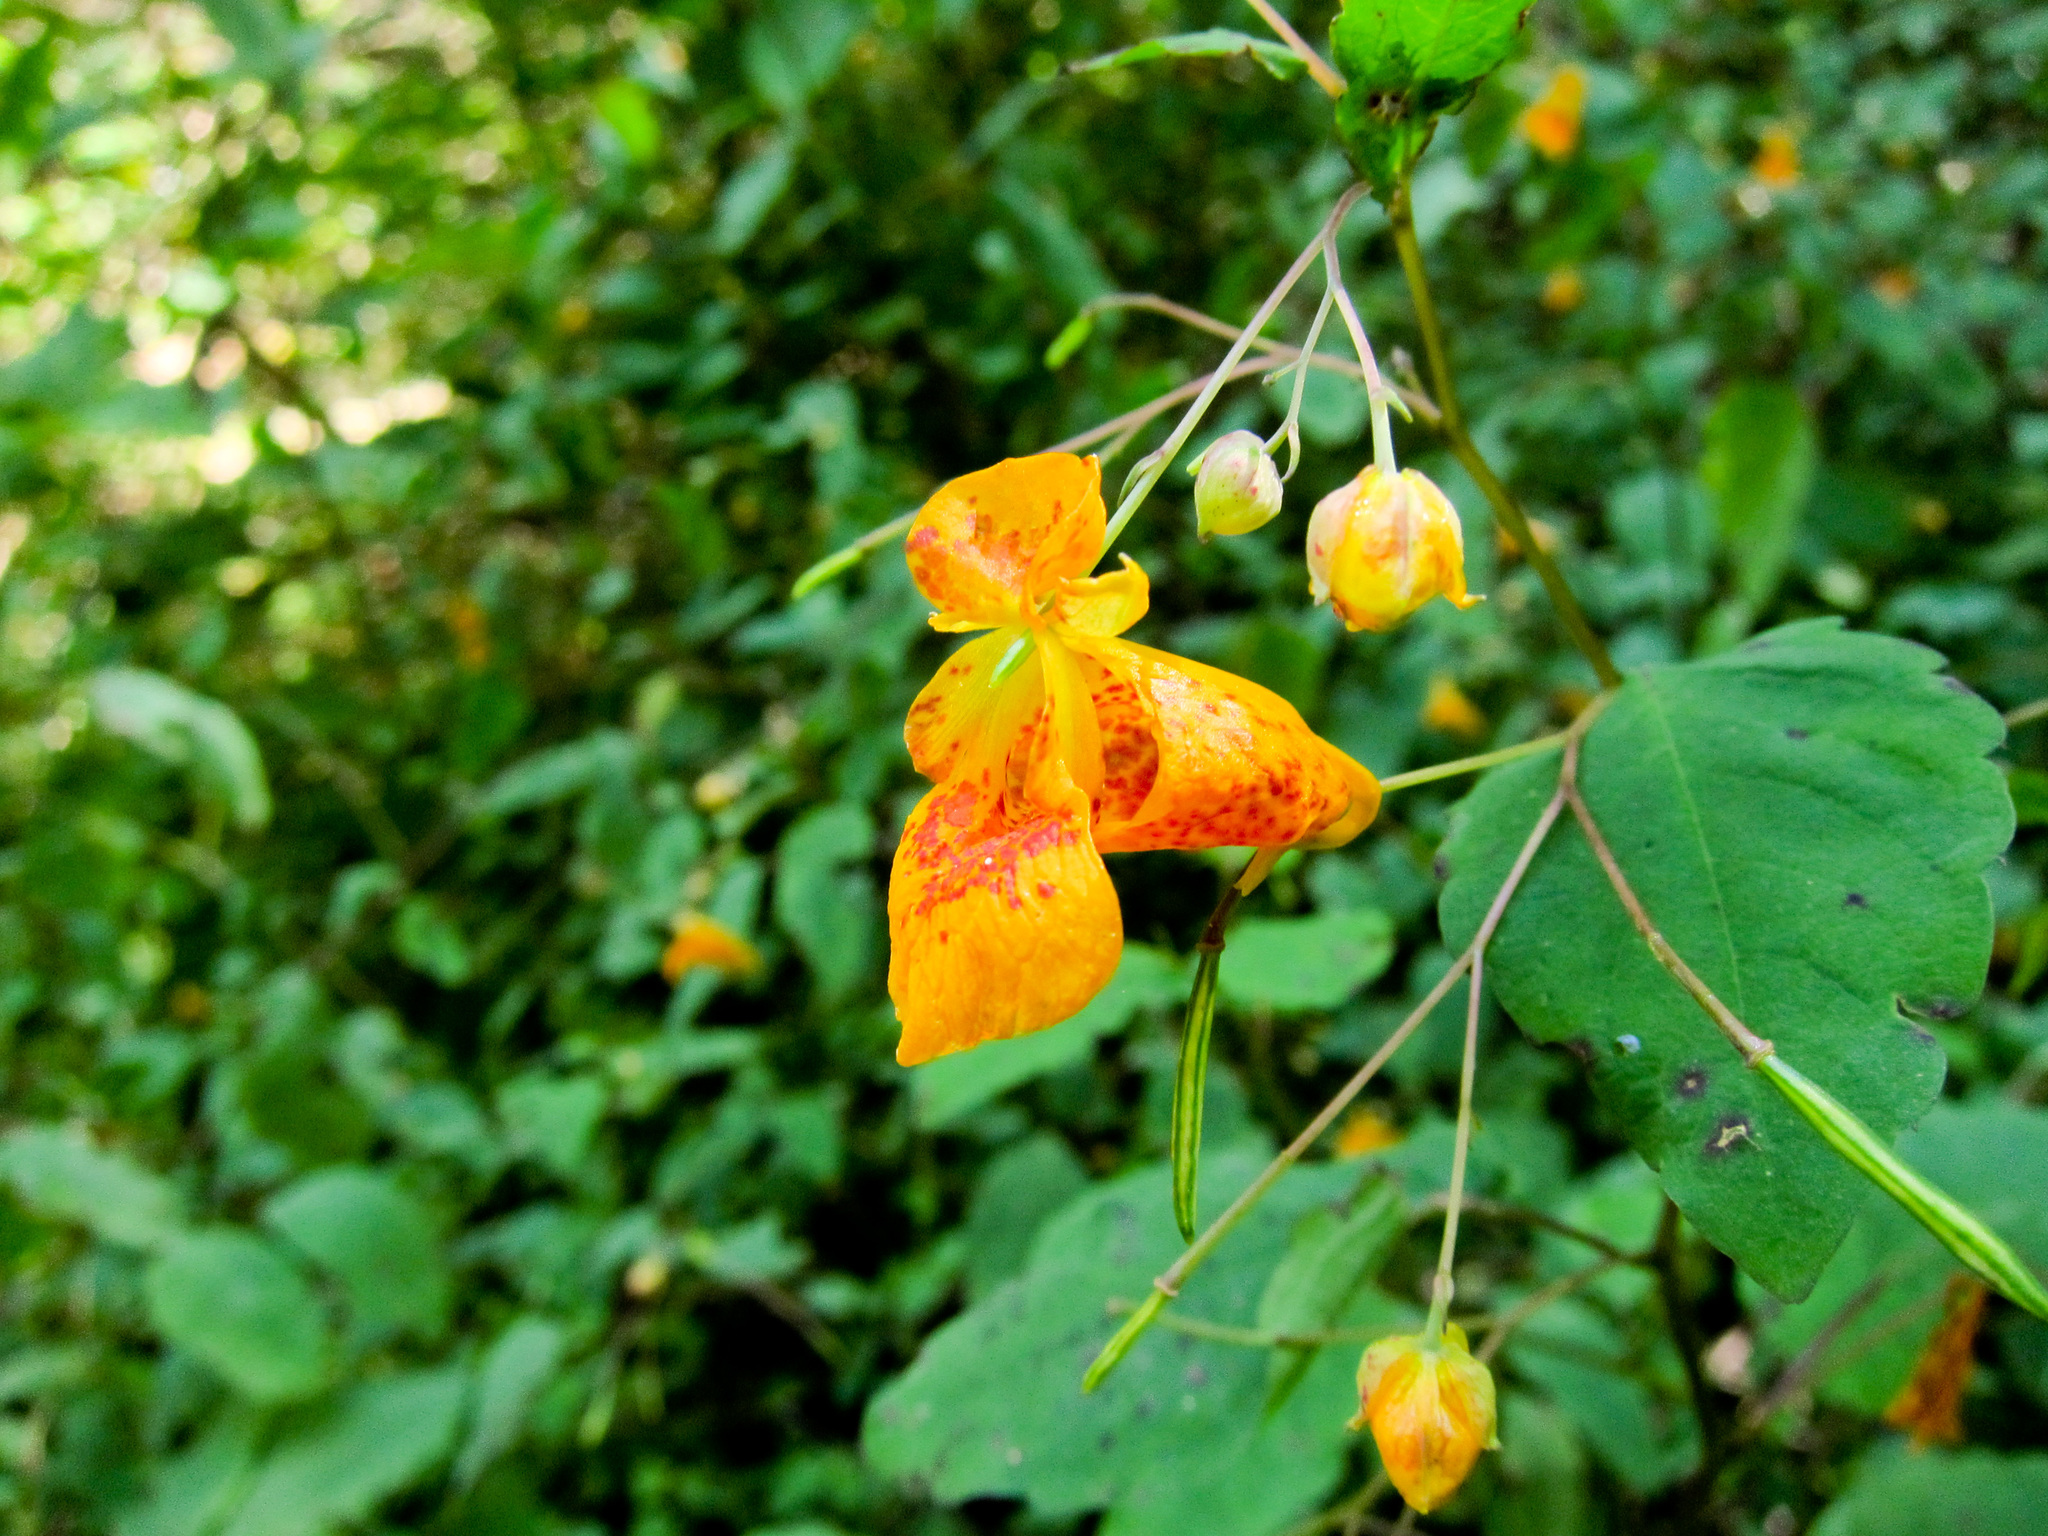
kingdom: Plantae
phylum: Tracheophyta
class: Magnoliopsida
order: Ericales
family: Balsaminaceae
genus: Impatiens
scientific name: Impatiens capensis
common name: Orange balsam
